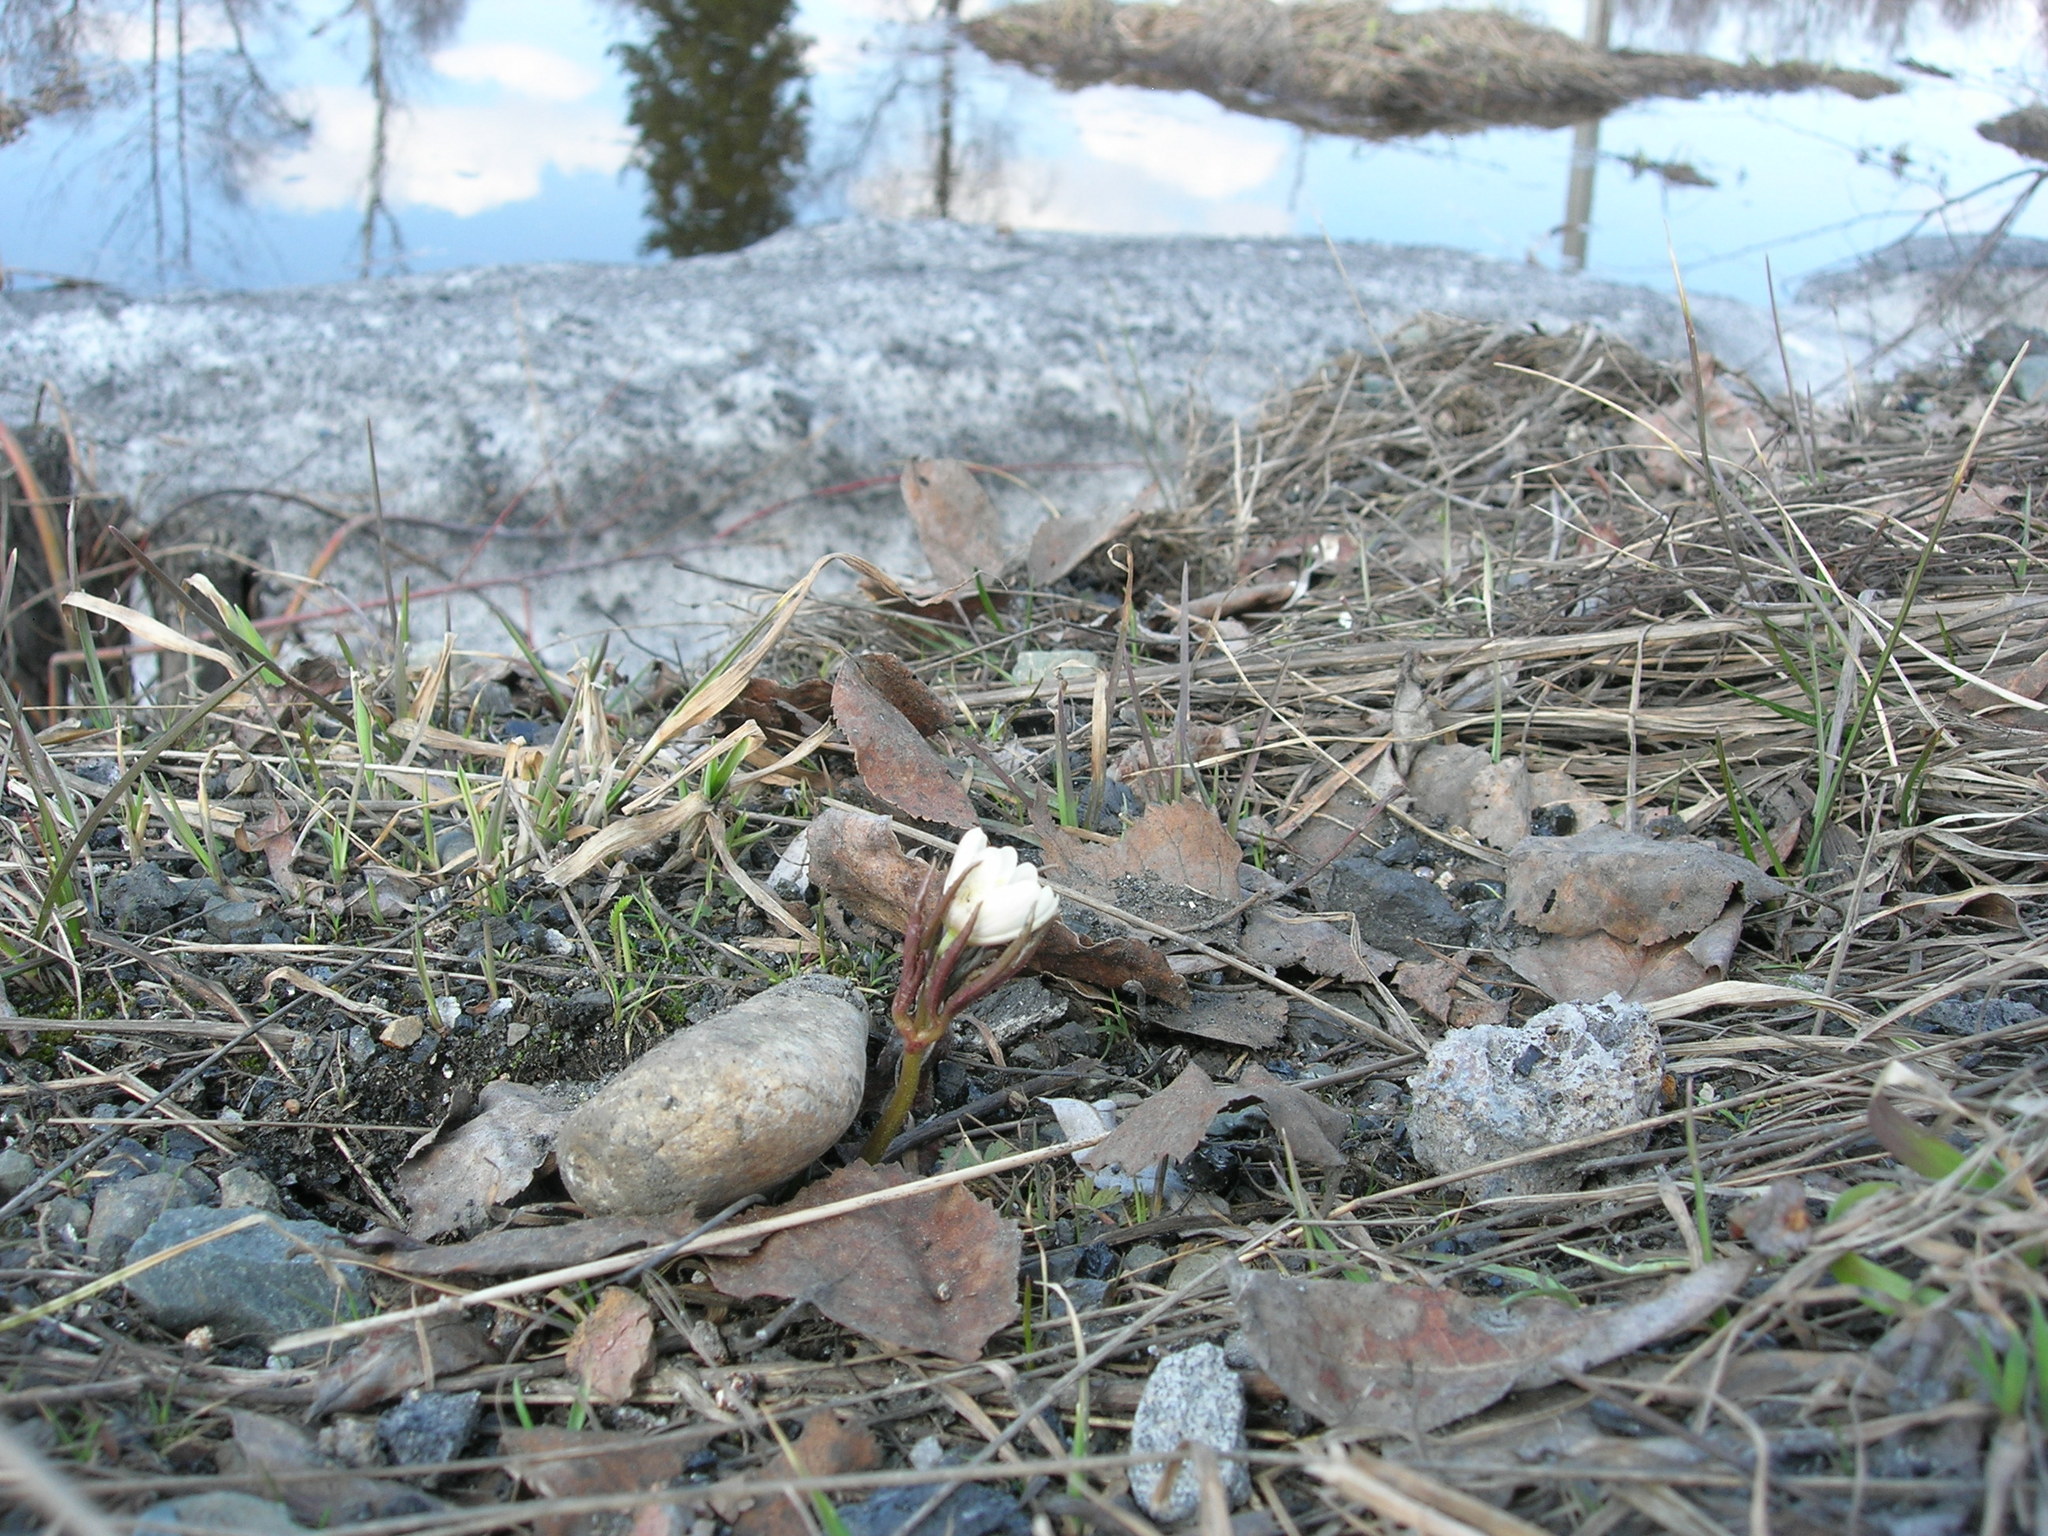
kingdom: Plantae
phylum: Tracheophyta
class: Magnoliopsida
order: Ranunculales
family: Ranunculaceae
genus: Anemone
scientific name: Anemone altaica
